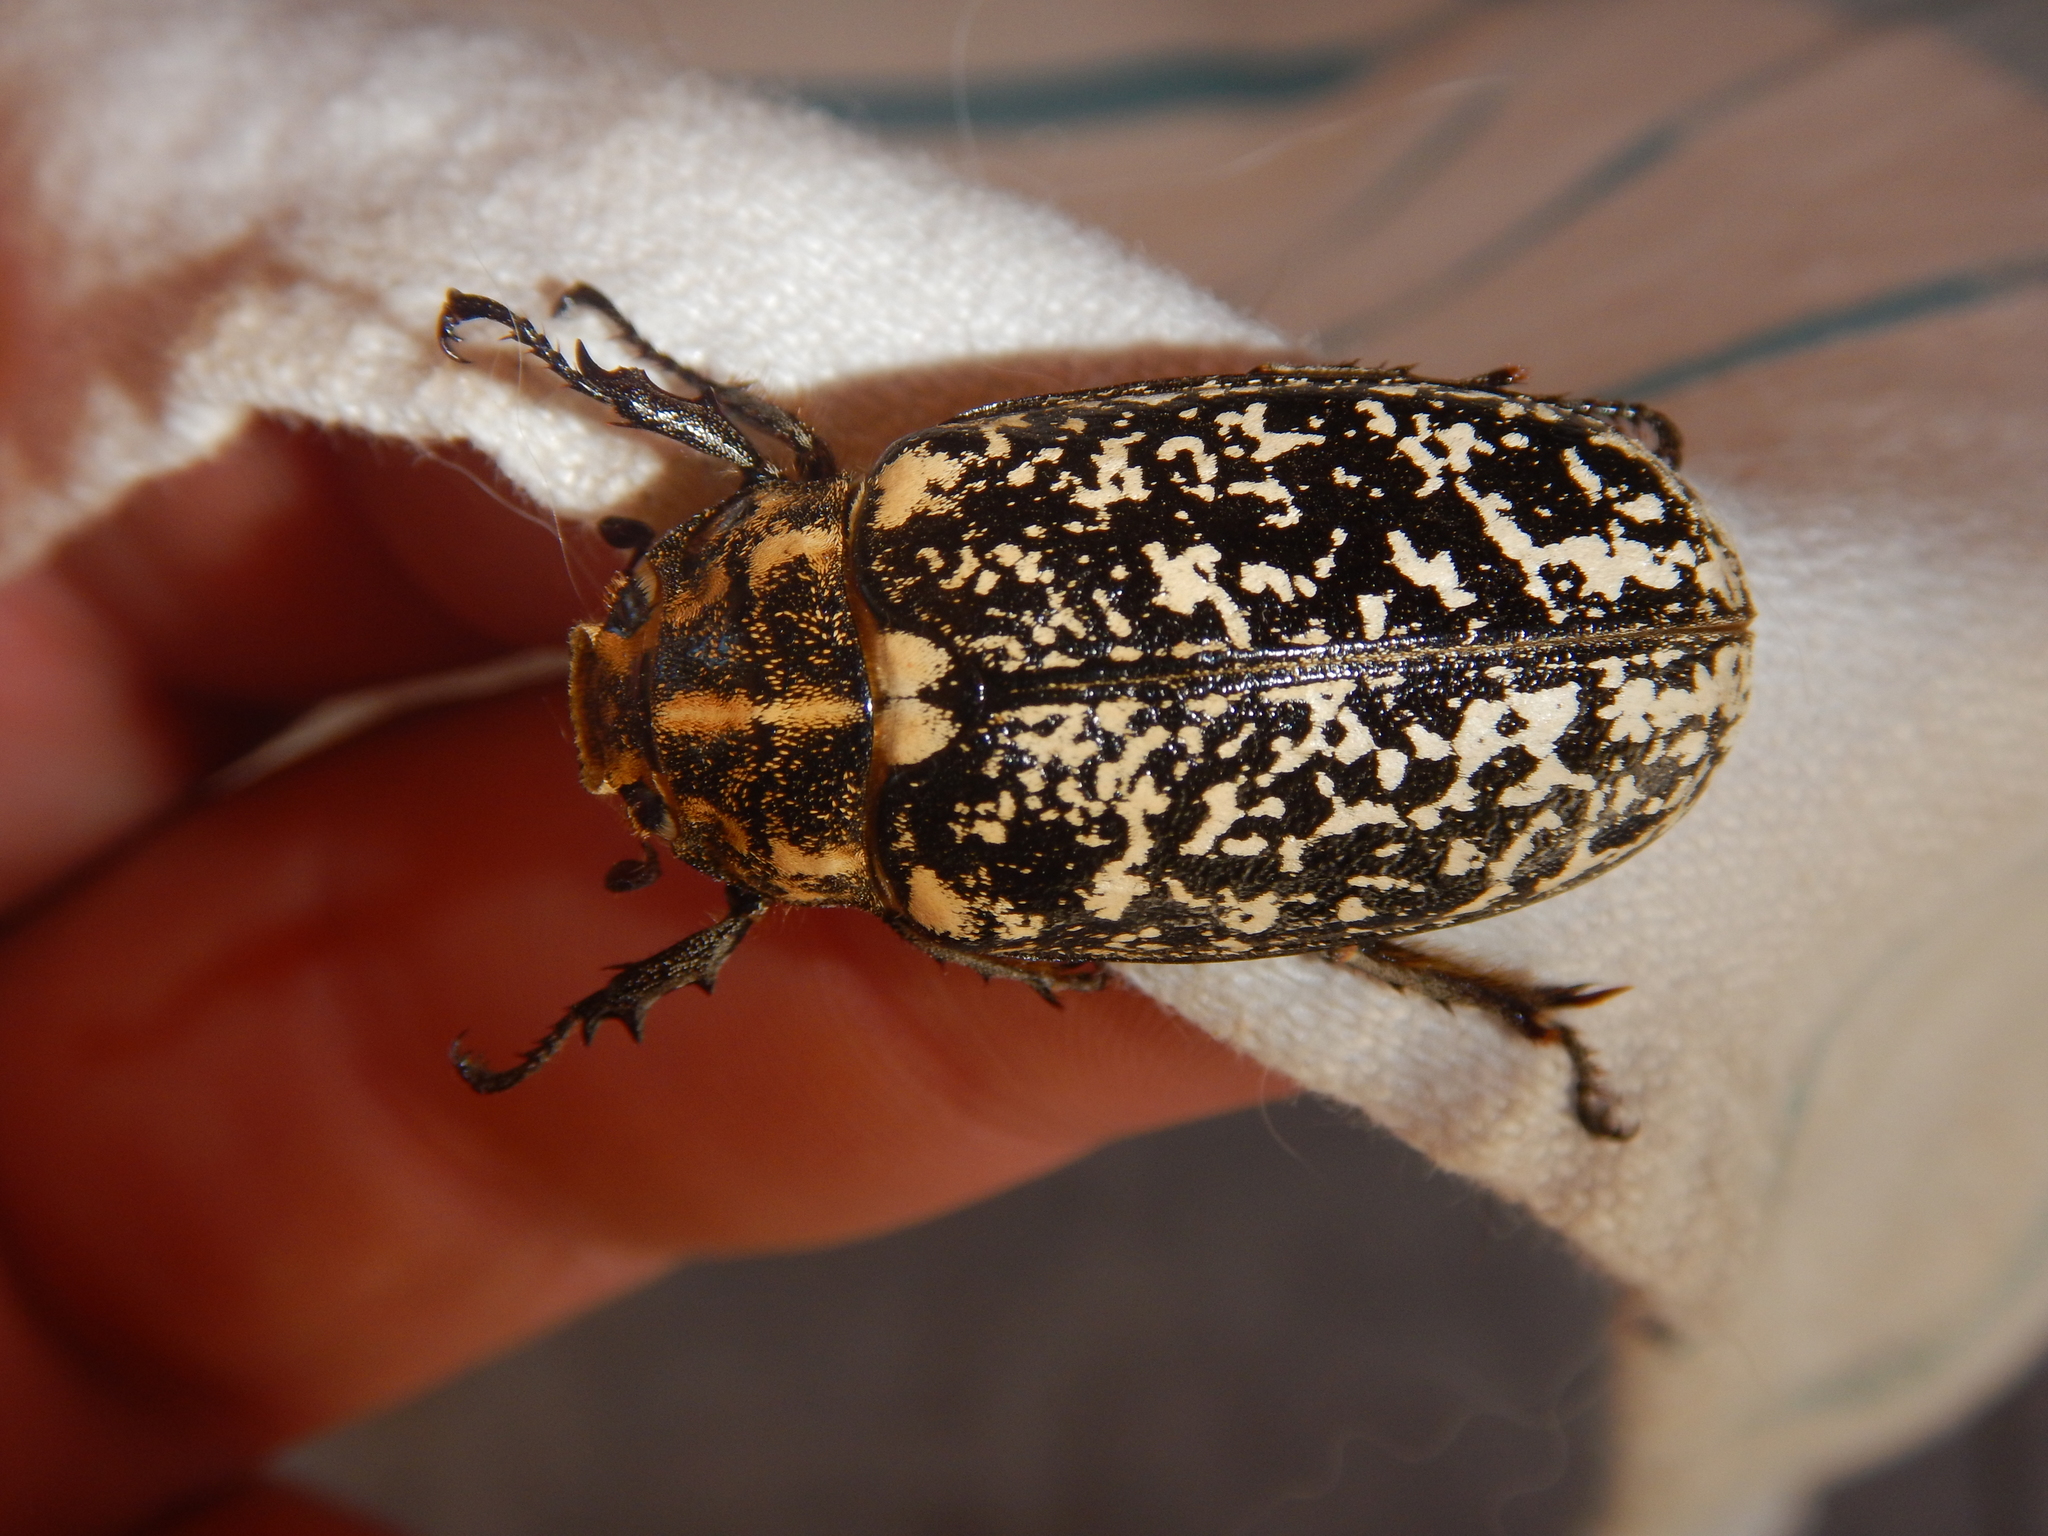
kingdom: Animalia
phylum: Arthropoda
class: Insecta
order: Coleoptera
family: Scarabaeidae
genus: Polyphylla
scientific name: Polyphylla fullo
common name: Pine chafer
